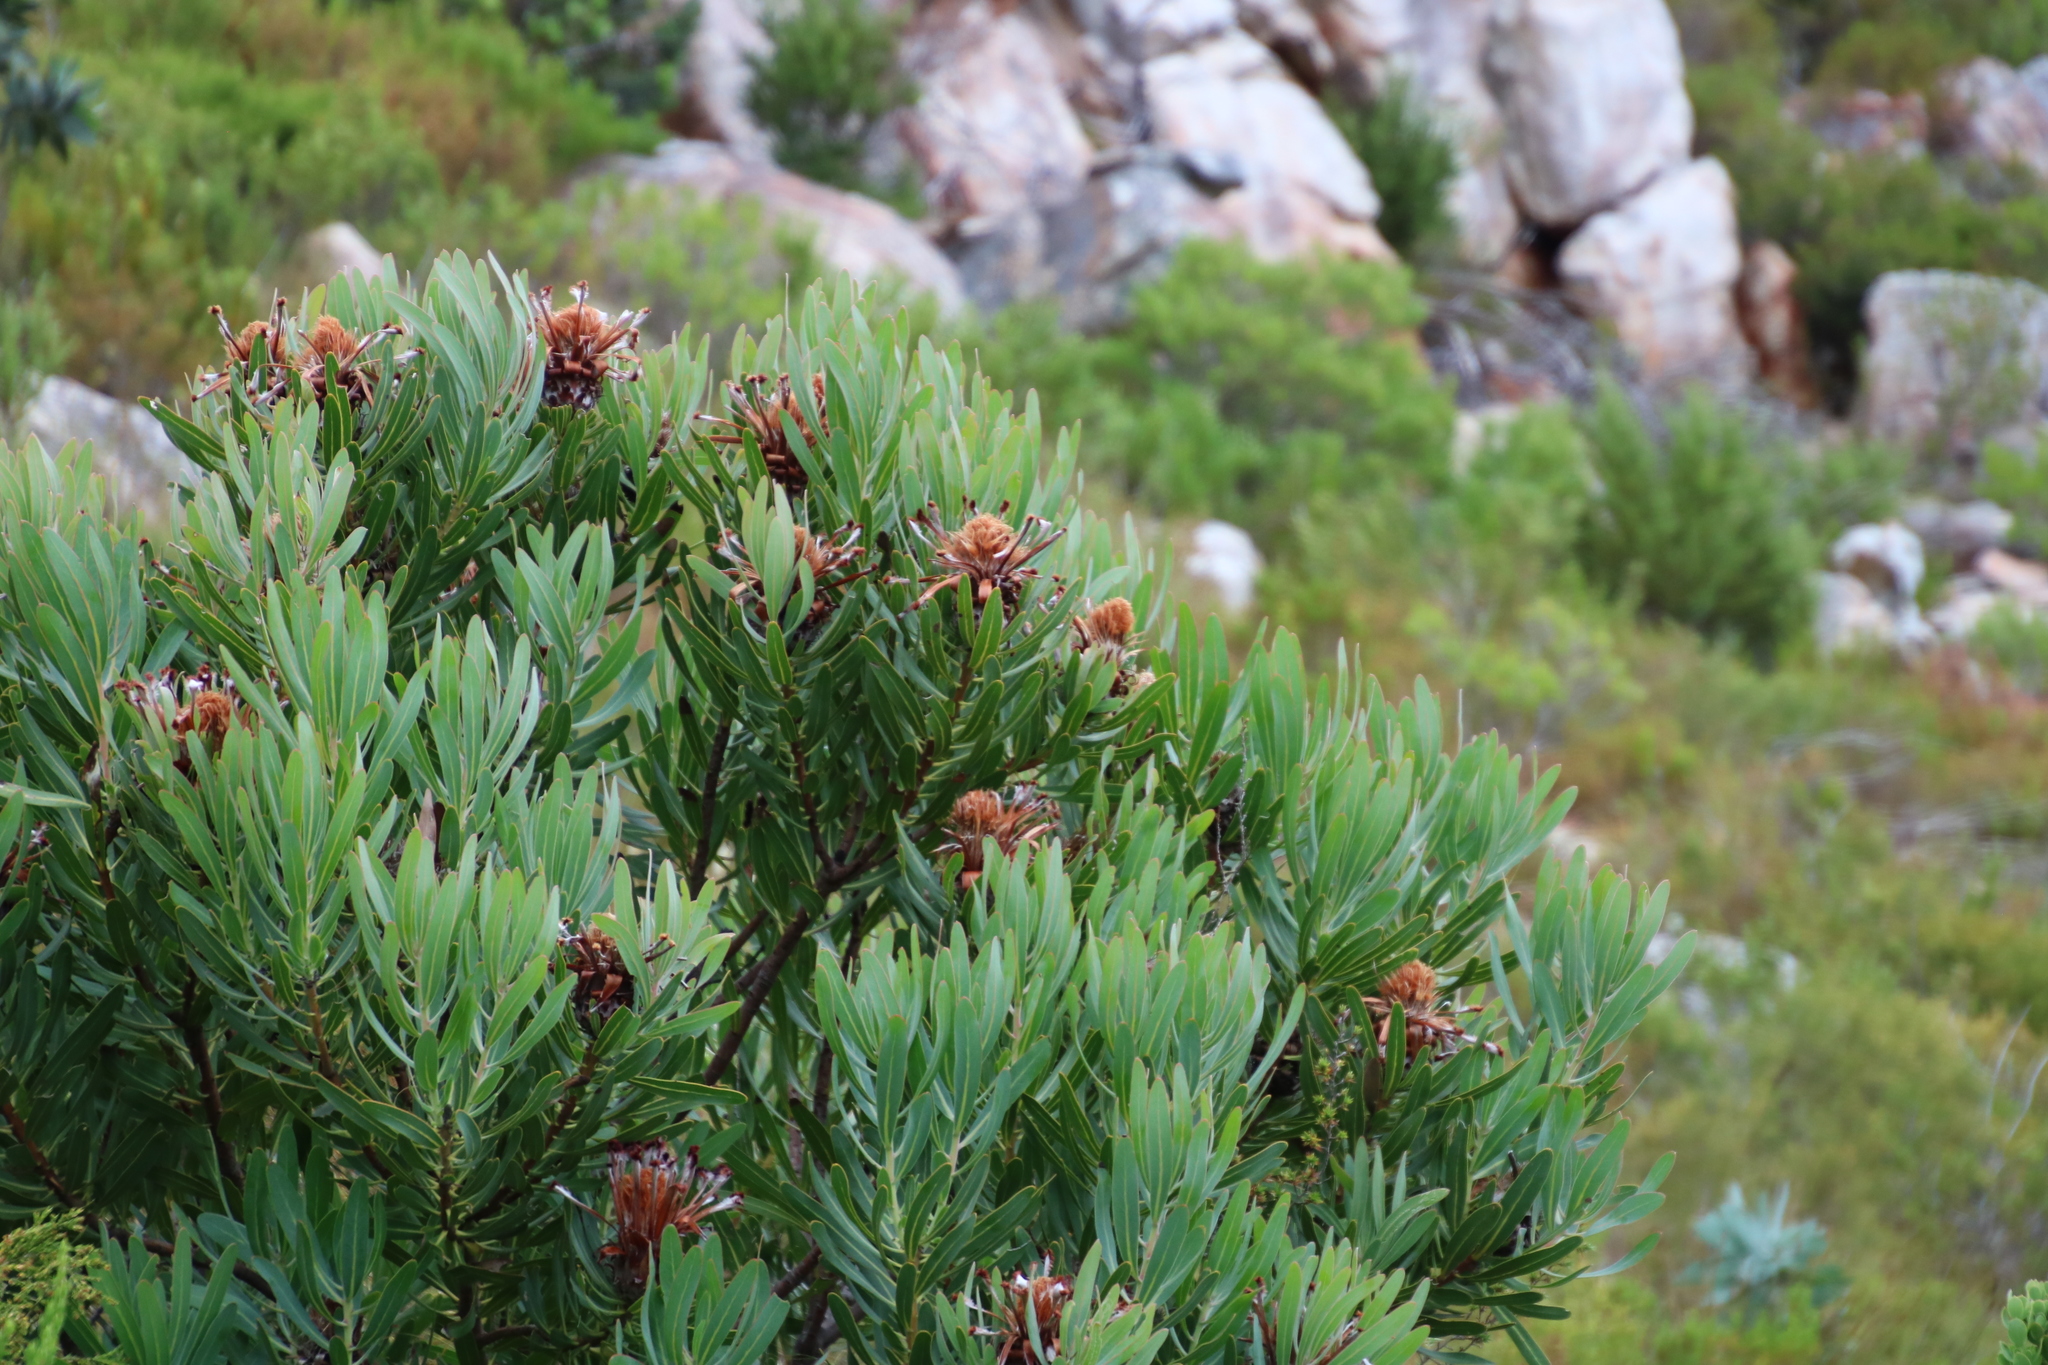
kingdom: Plantae
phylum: Tracheophyta
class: Magnoliopsida
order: Proteales
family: Proteaceae
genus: Protea
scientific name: Protea neriifolia
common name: Blue sugarbush
